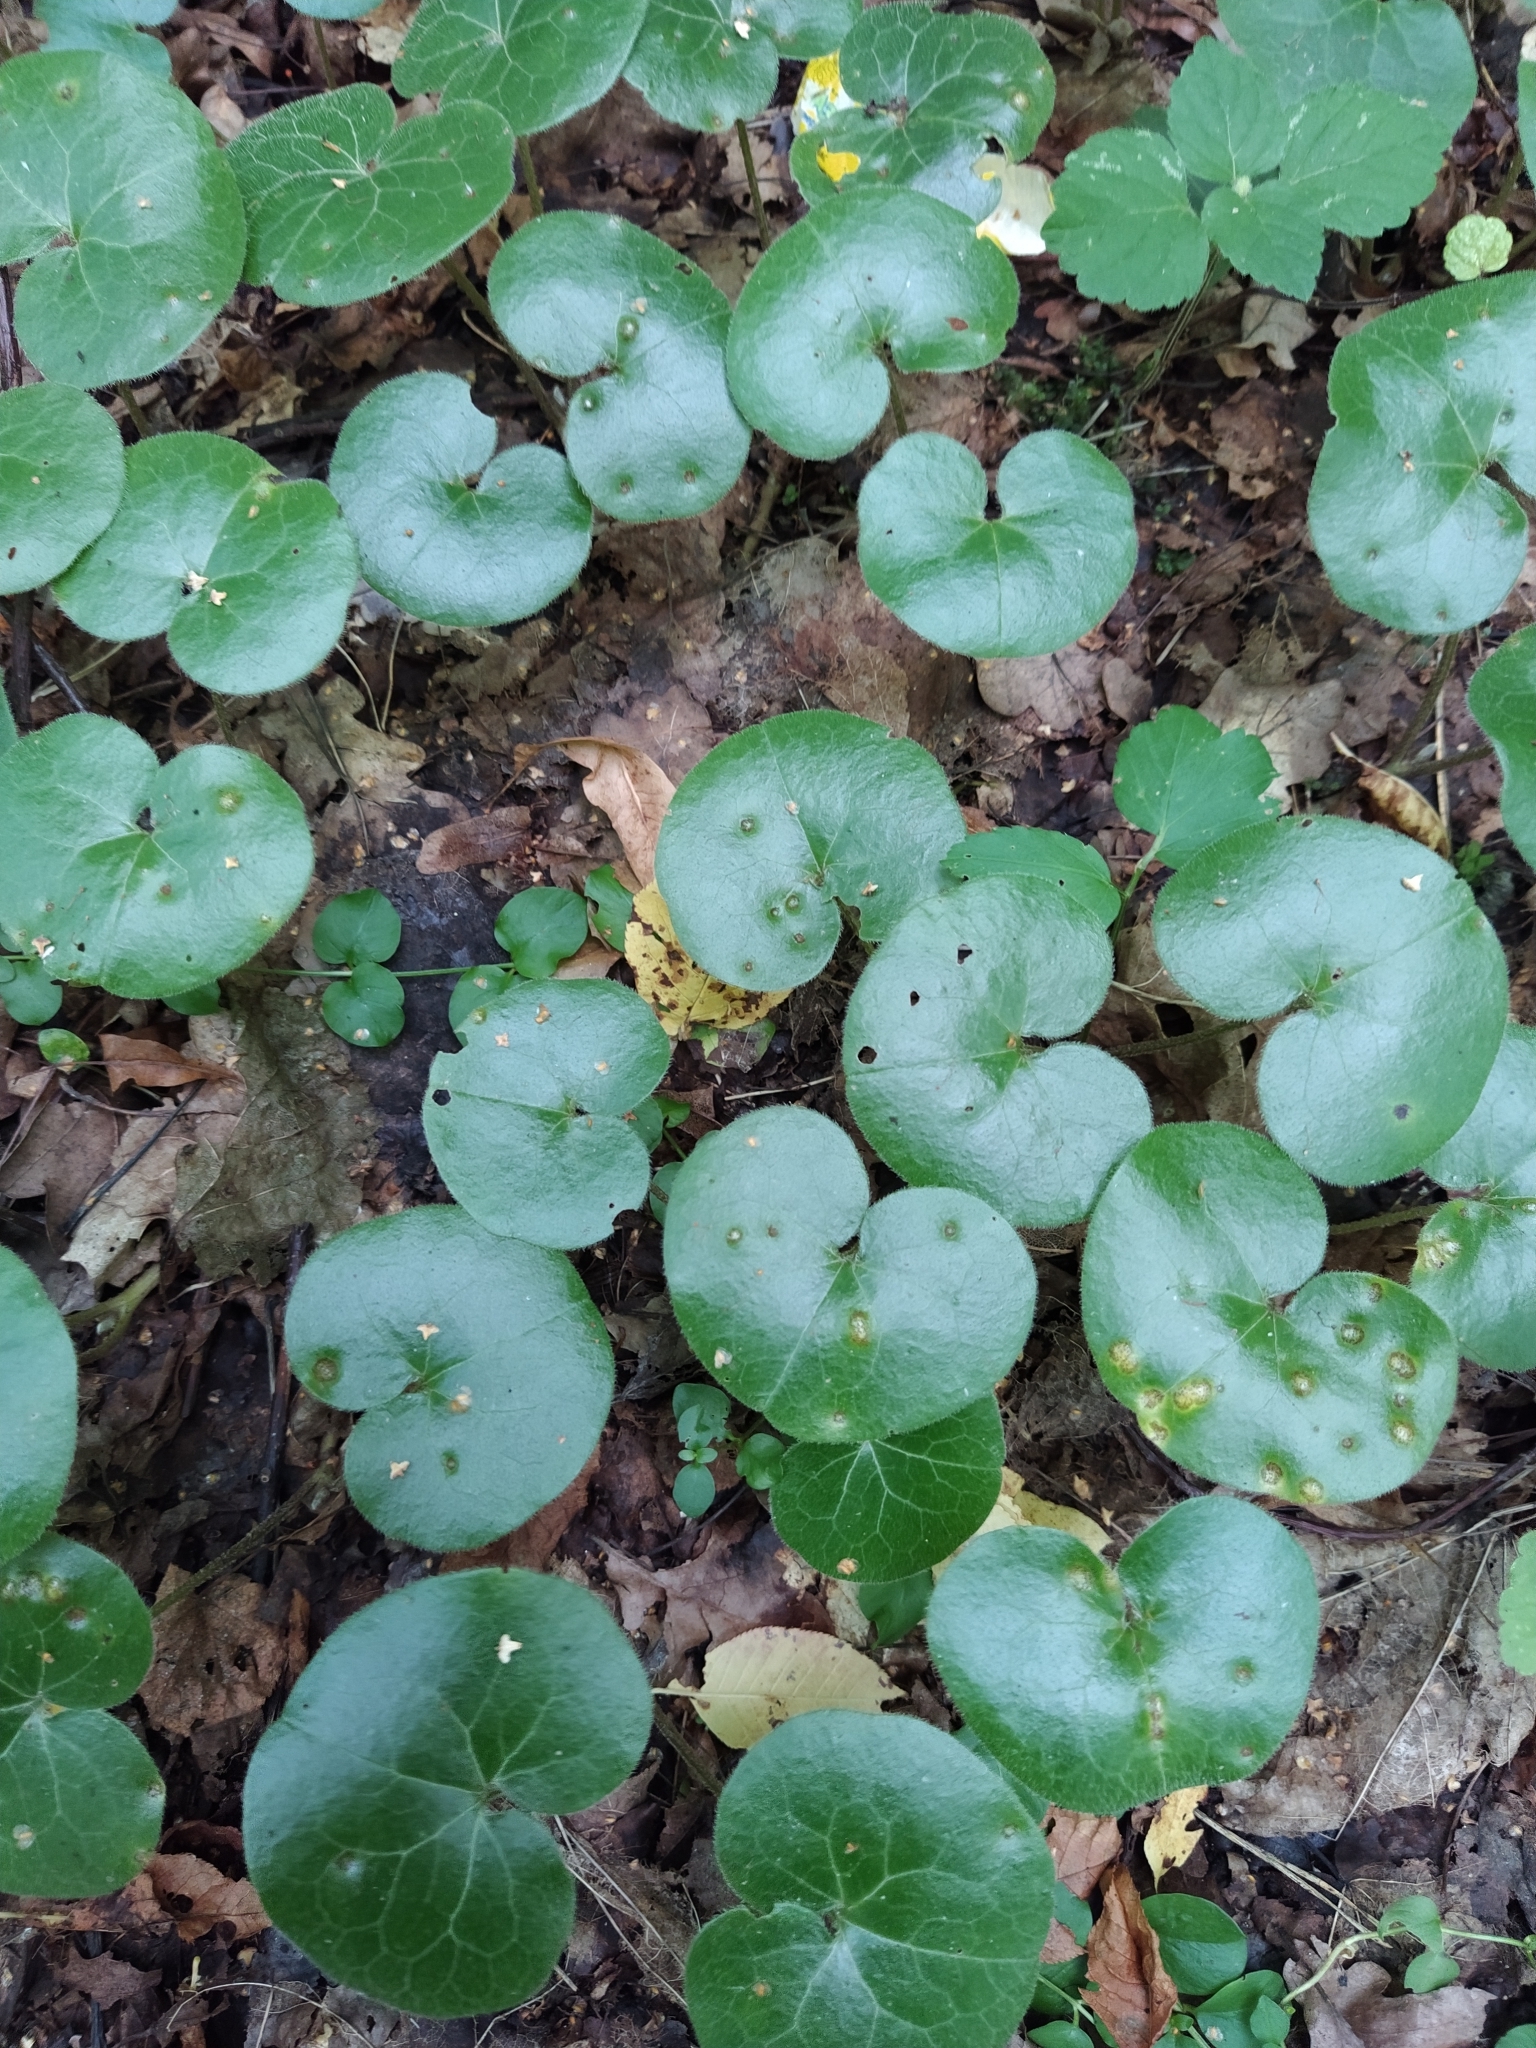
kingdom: Plantae
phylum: Tracheophyta
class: Magnoliopsida
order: Piperales
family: Aristolochiaceae
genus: Asarum
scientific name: Asarum europaeum
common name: Asarabacca
